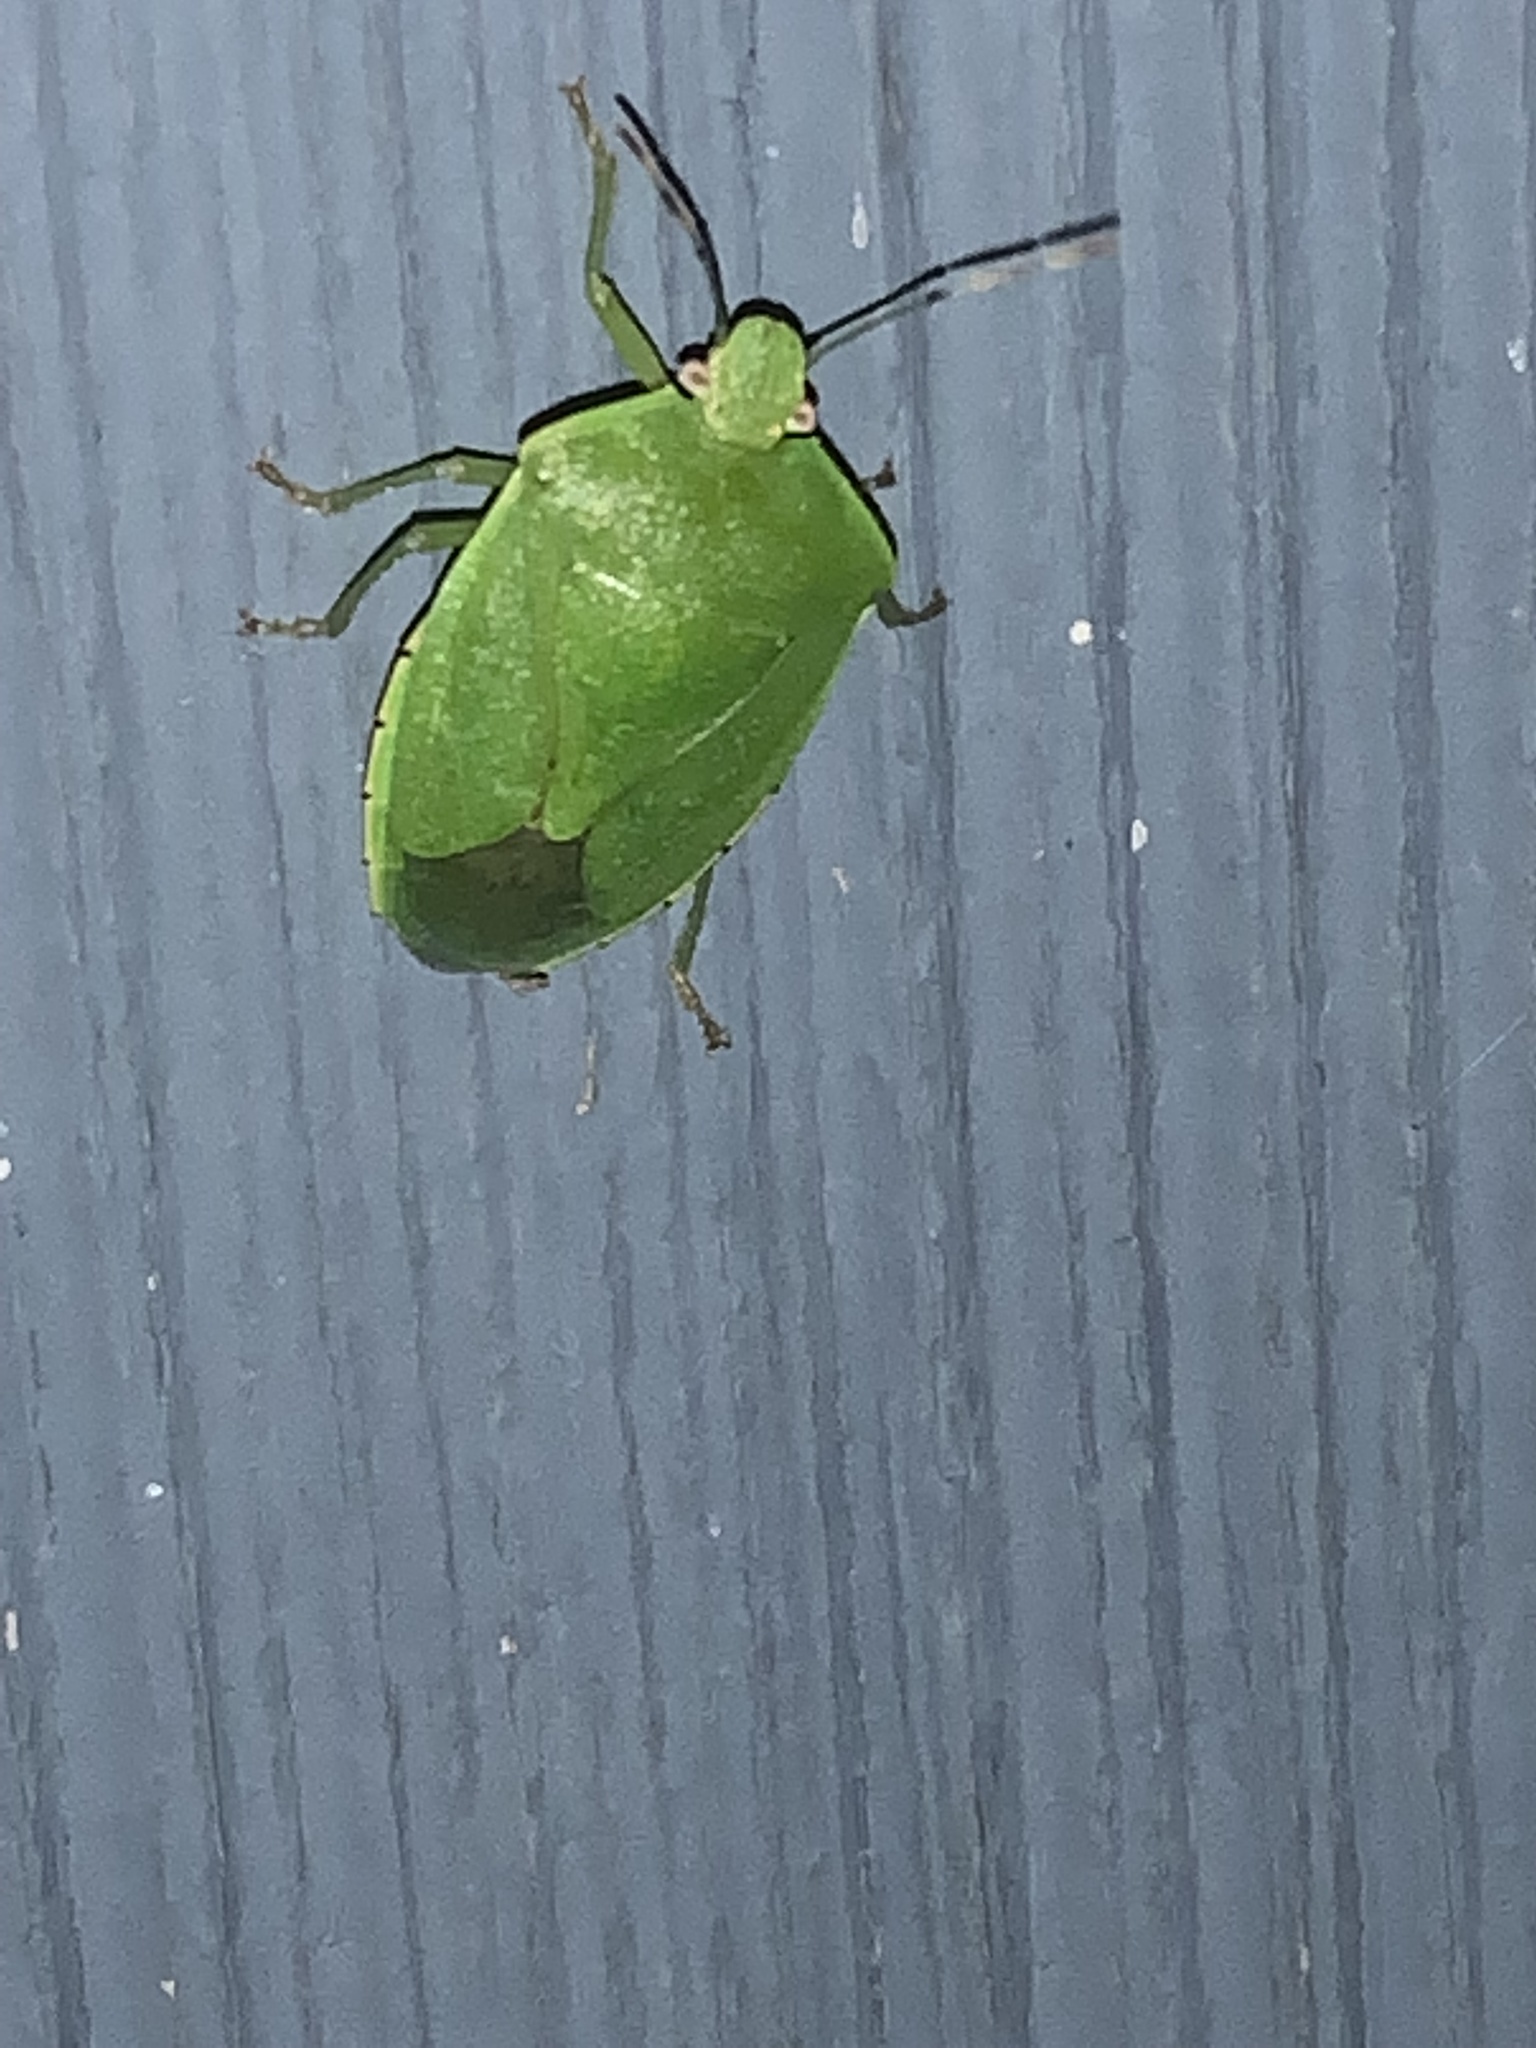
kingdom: Animalia
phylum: Arthropoda
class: Insecta
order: Hemiptera
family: Pentatomidae
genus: Chinavia
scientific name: Chinavia hilaris
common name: Green stink bug
